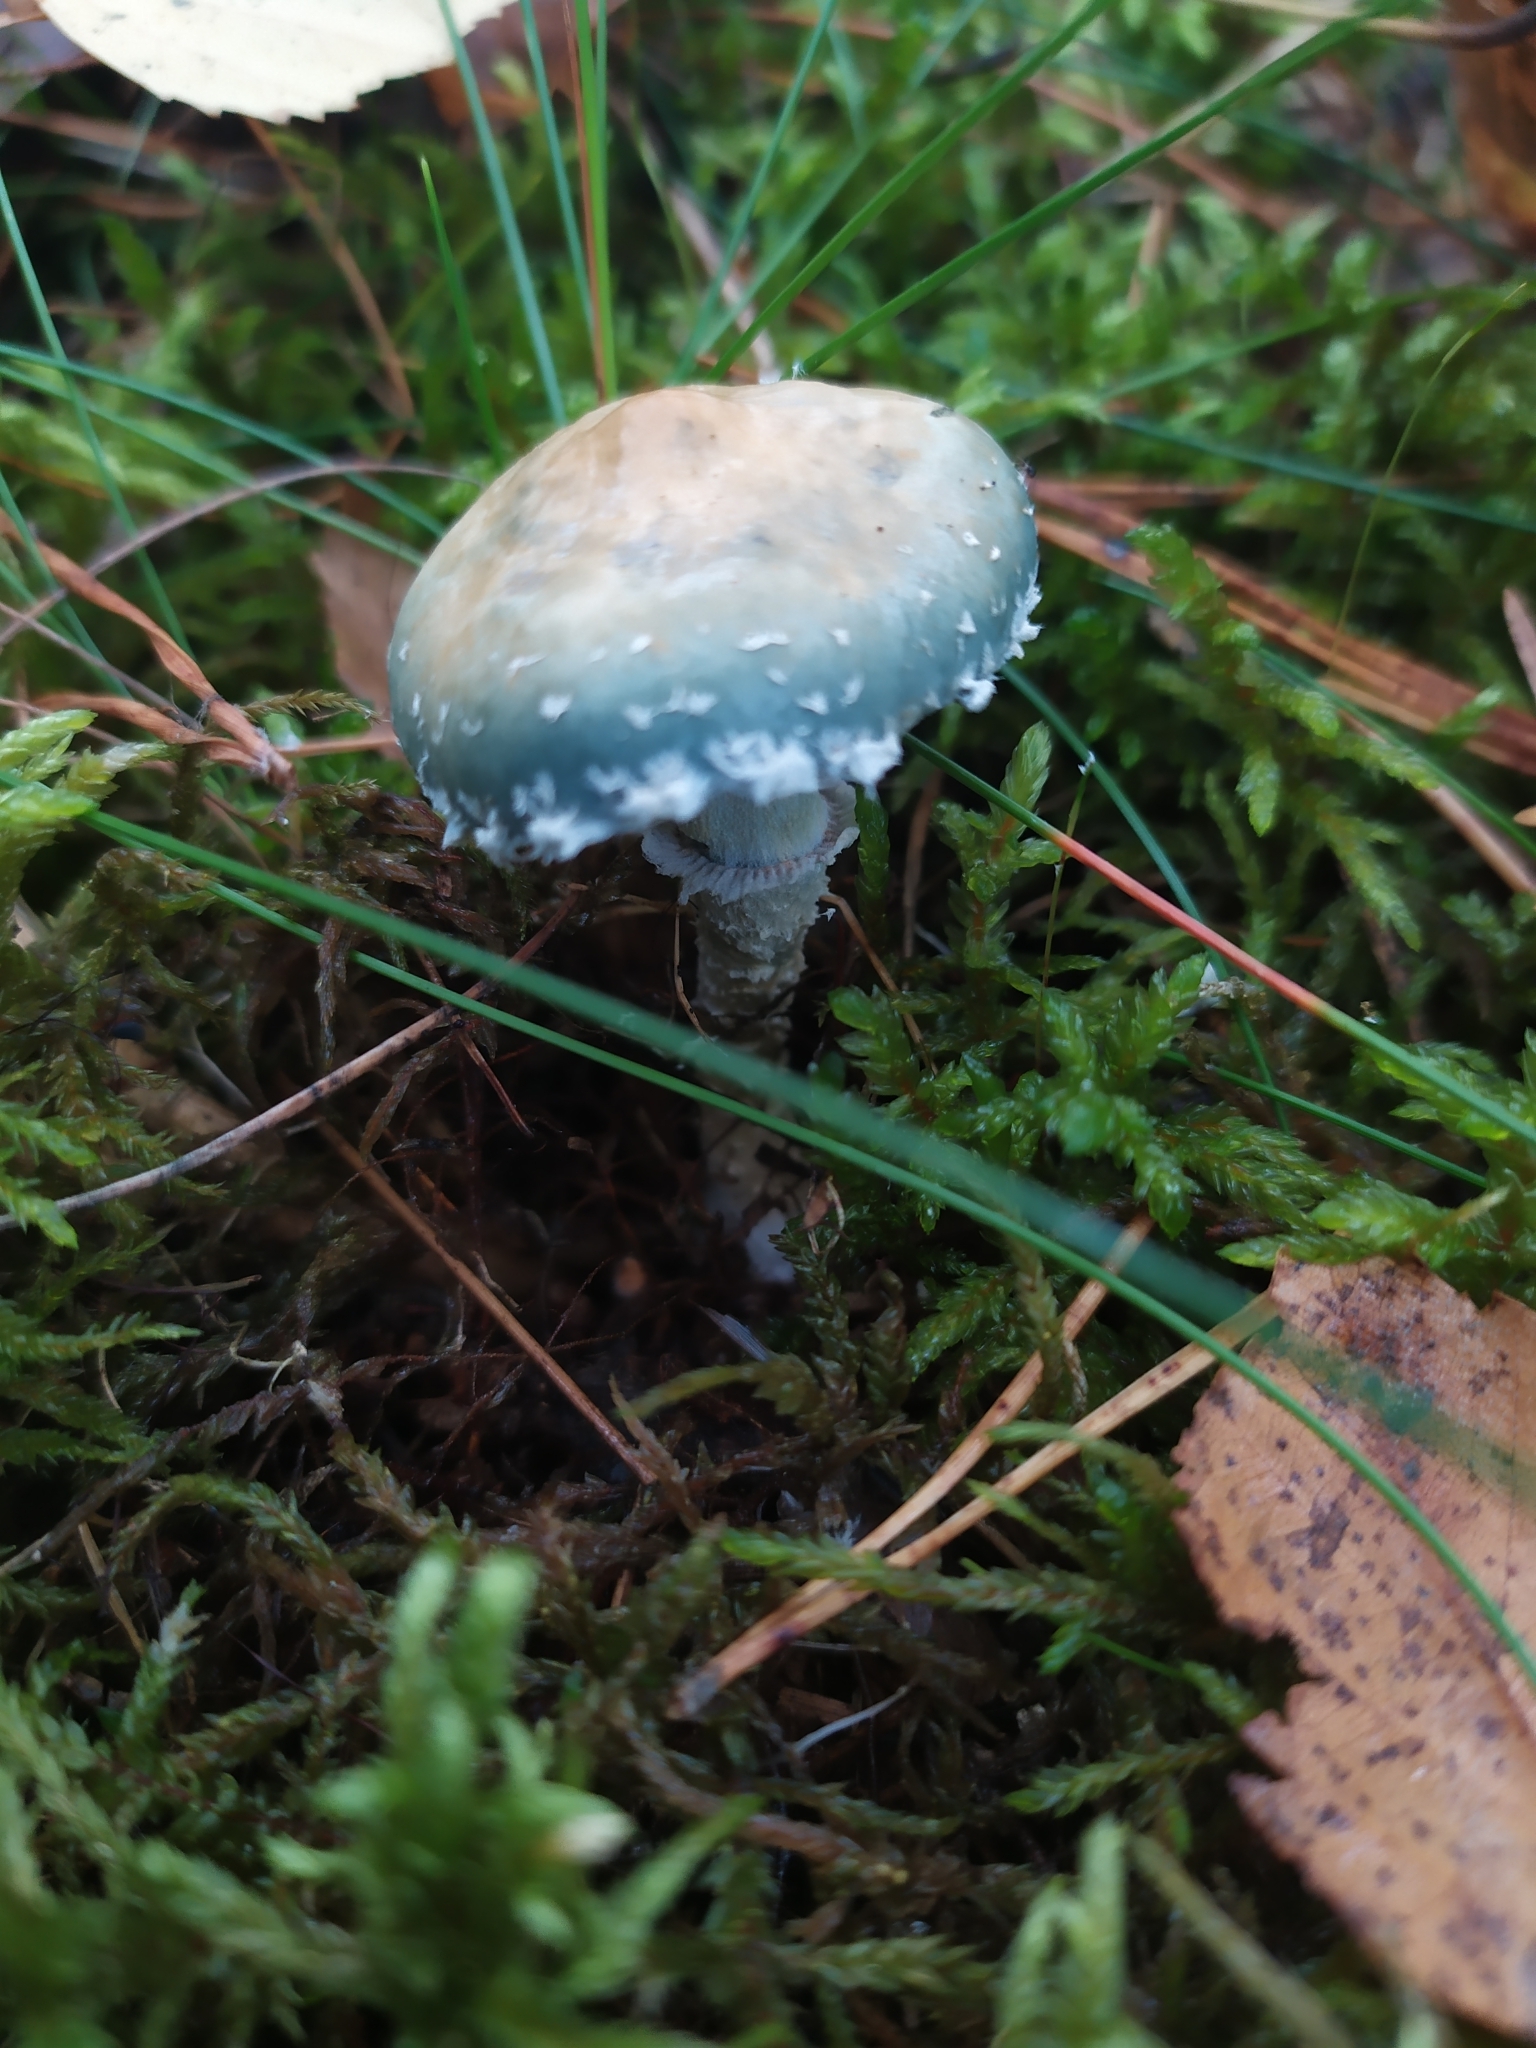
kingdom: Fungi
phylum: Basidiomycota
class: Agaricomycetes
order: Agaricales
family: Strophariaceae
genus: Stropharia
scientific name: Stropharia aeruginosa
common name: Verdigris roundhead
